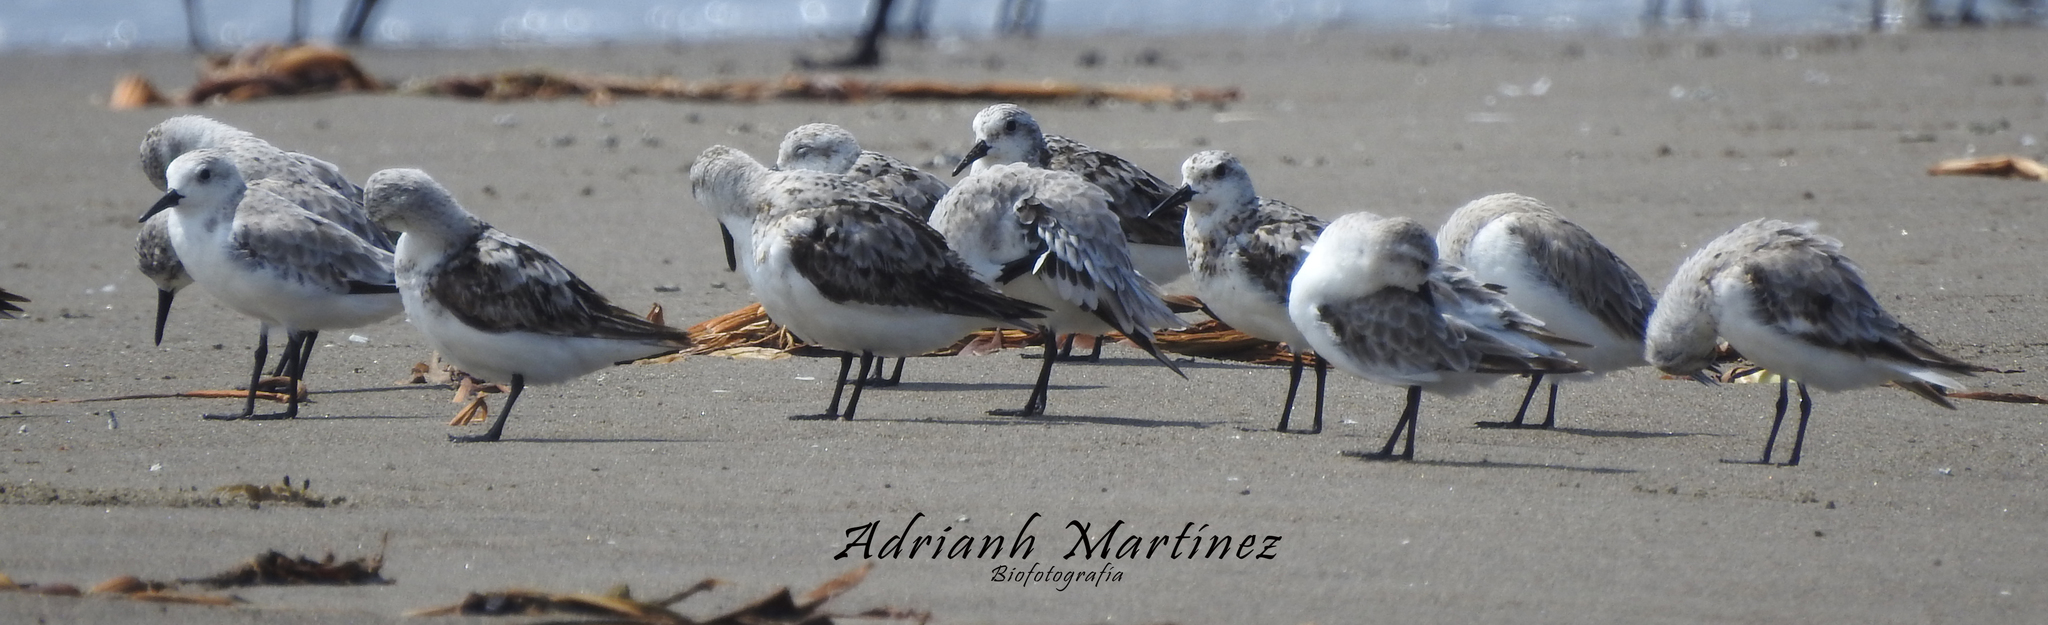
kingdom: Animalia
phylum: Chordata
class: Aves
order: Charadriiformes
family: Scolopacidae
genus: Calidris
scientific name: Calidris alba
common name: Sanderling
